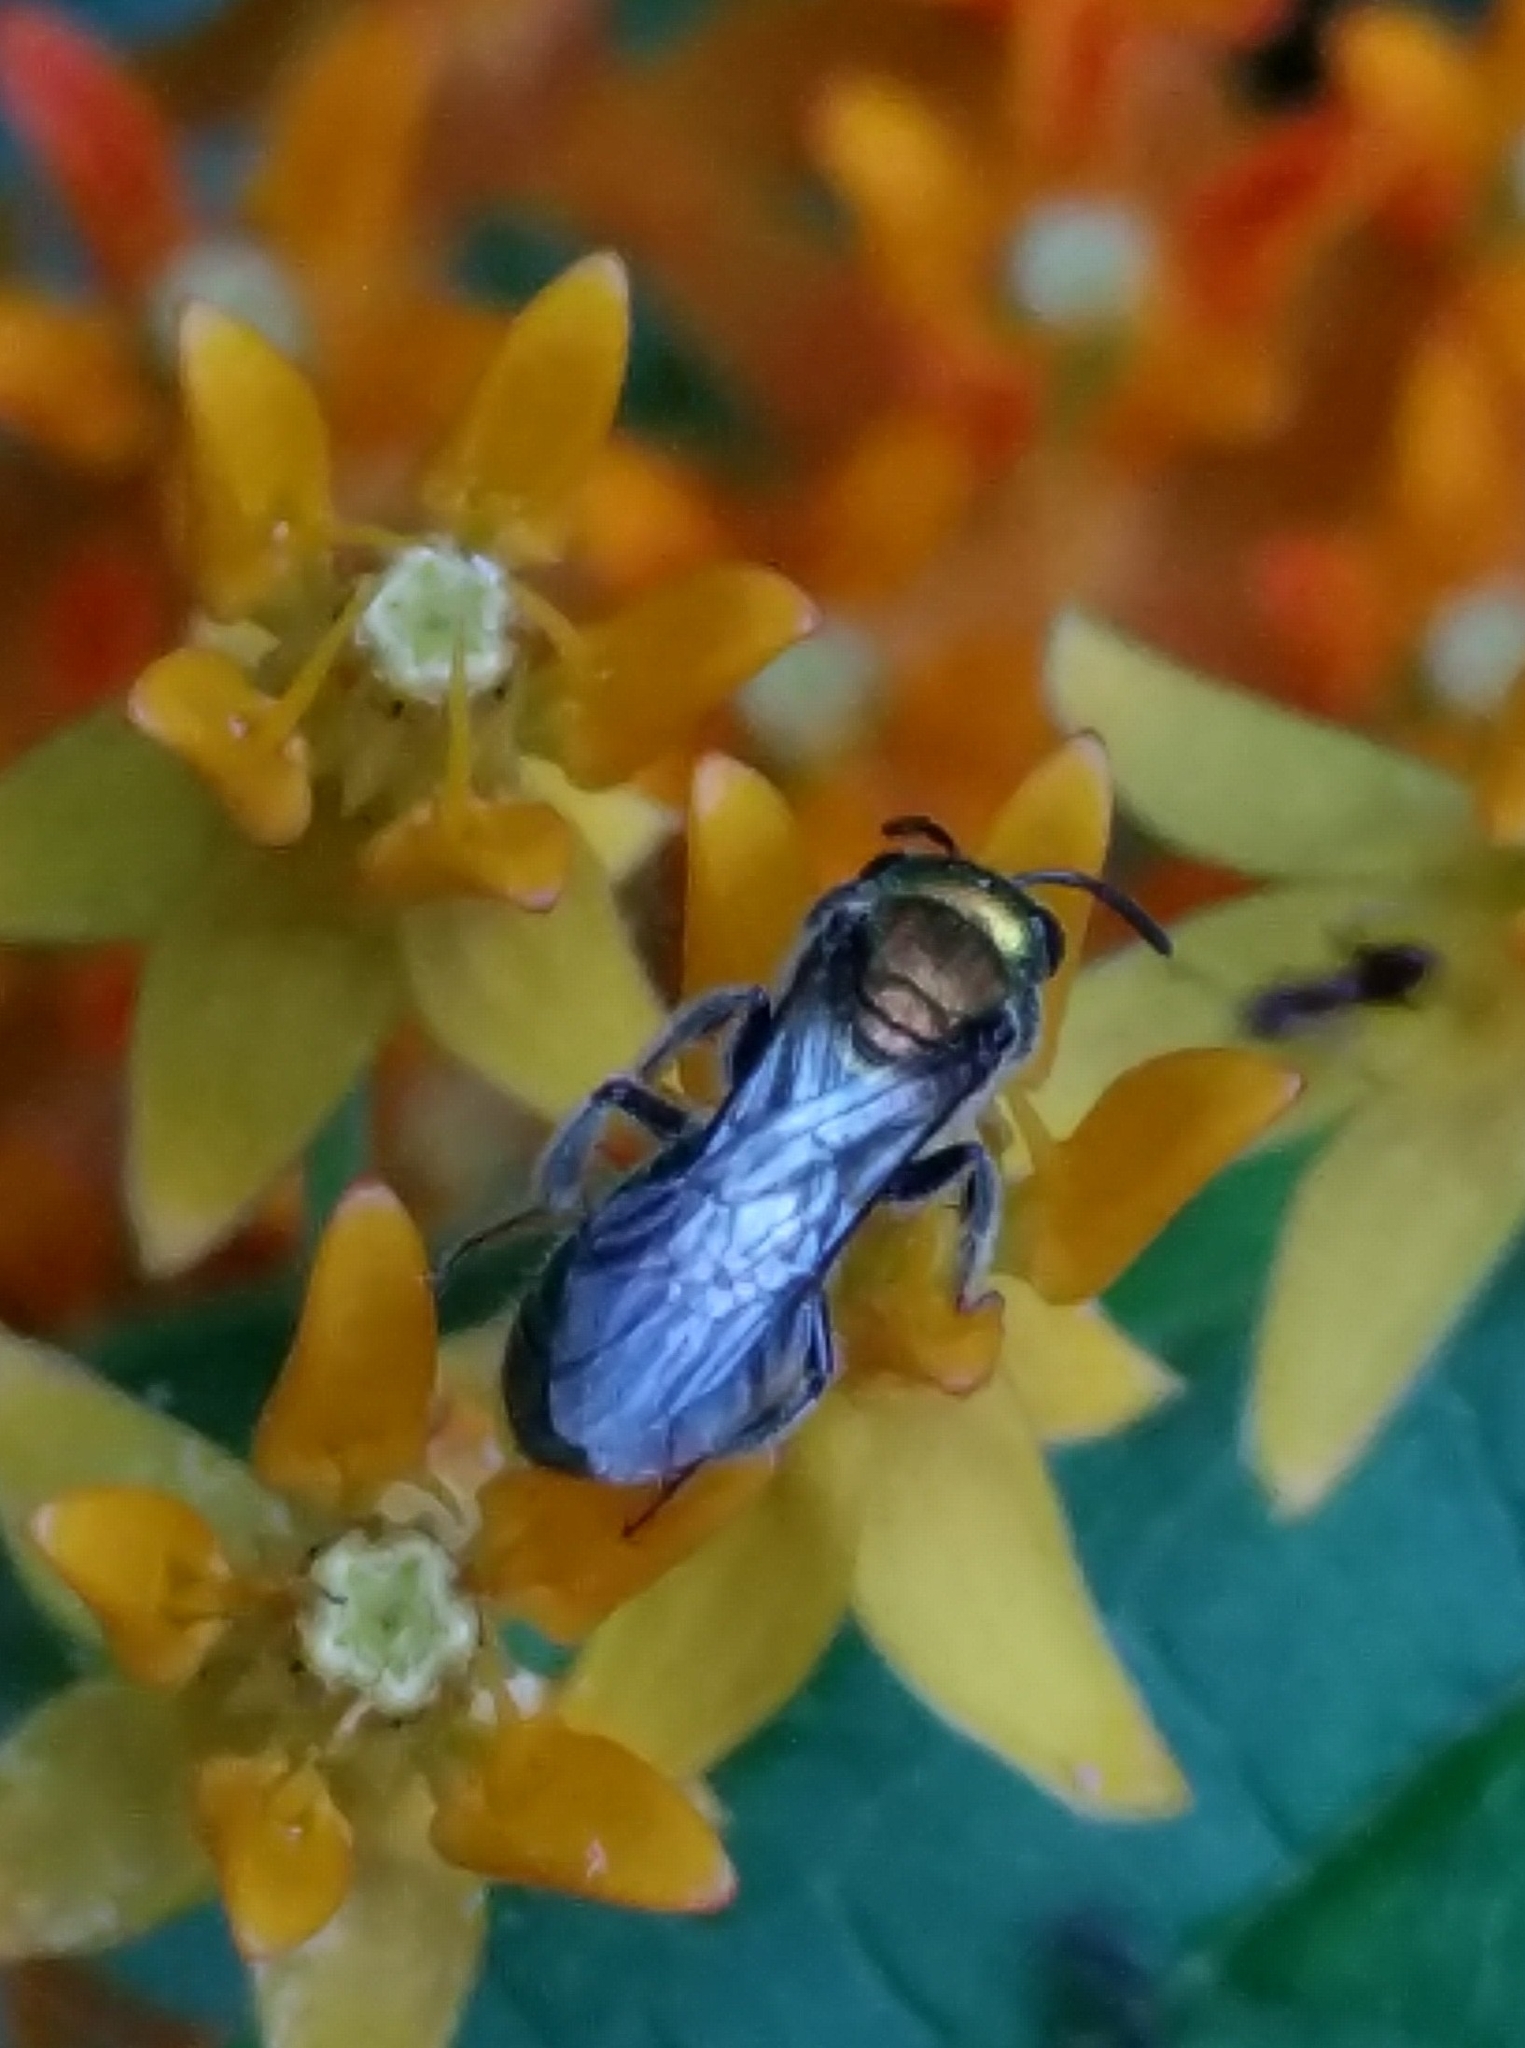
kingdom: Animalia
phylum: Arthropoda
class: Insecta
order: Hymenoptera
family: Halictidae
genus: Augochlora
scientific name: Augochlora pura
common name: Pure green sweat bee
